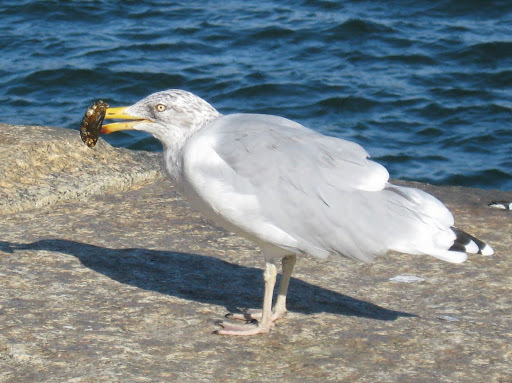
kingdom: Animalia
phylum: Chordata
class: Aves
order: Charadriiformes
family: Laridae
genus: Larus
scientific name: Larus smithsonianus
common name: American herring gull
